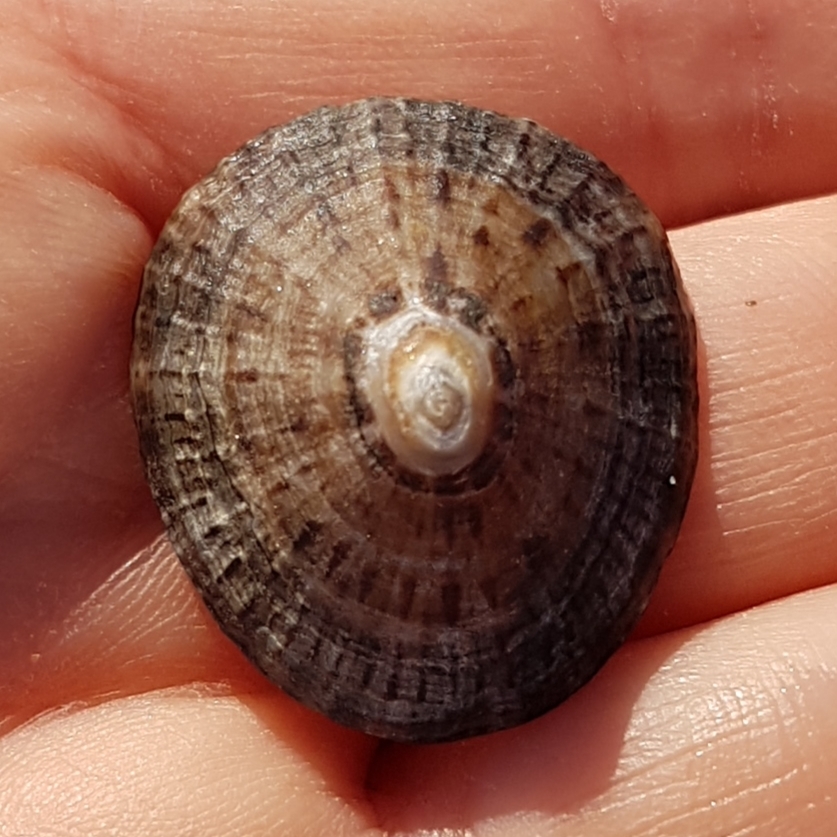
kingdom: Animalia
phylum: Mollusca
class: Gastropoda
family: Patellidae
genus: Patella
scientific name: Patella rustica
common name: Lusitanian limpet
